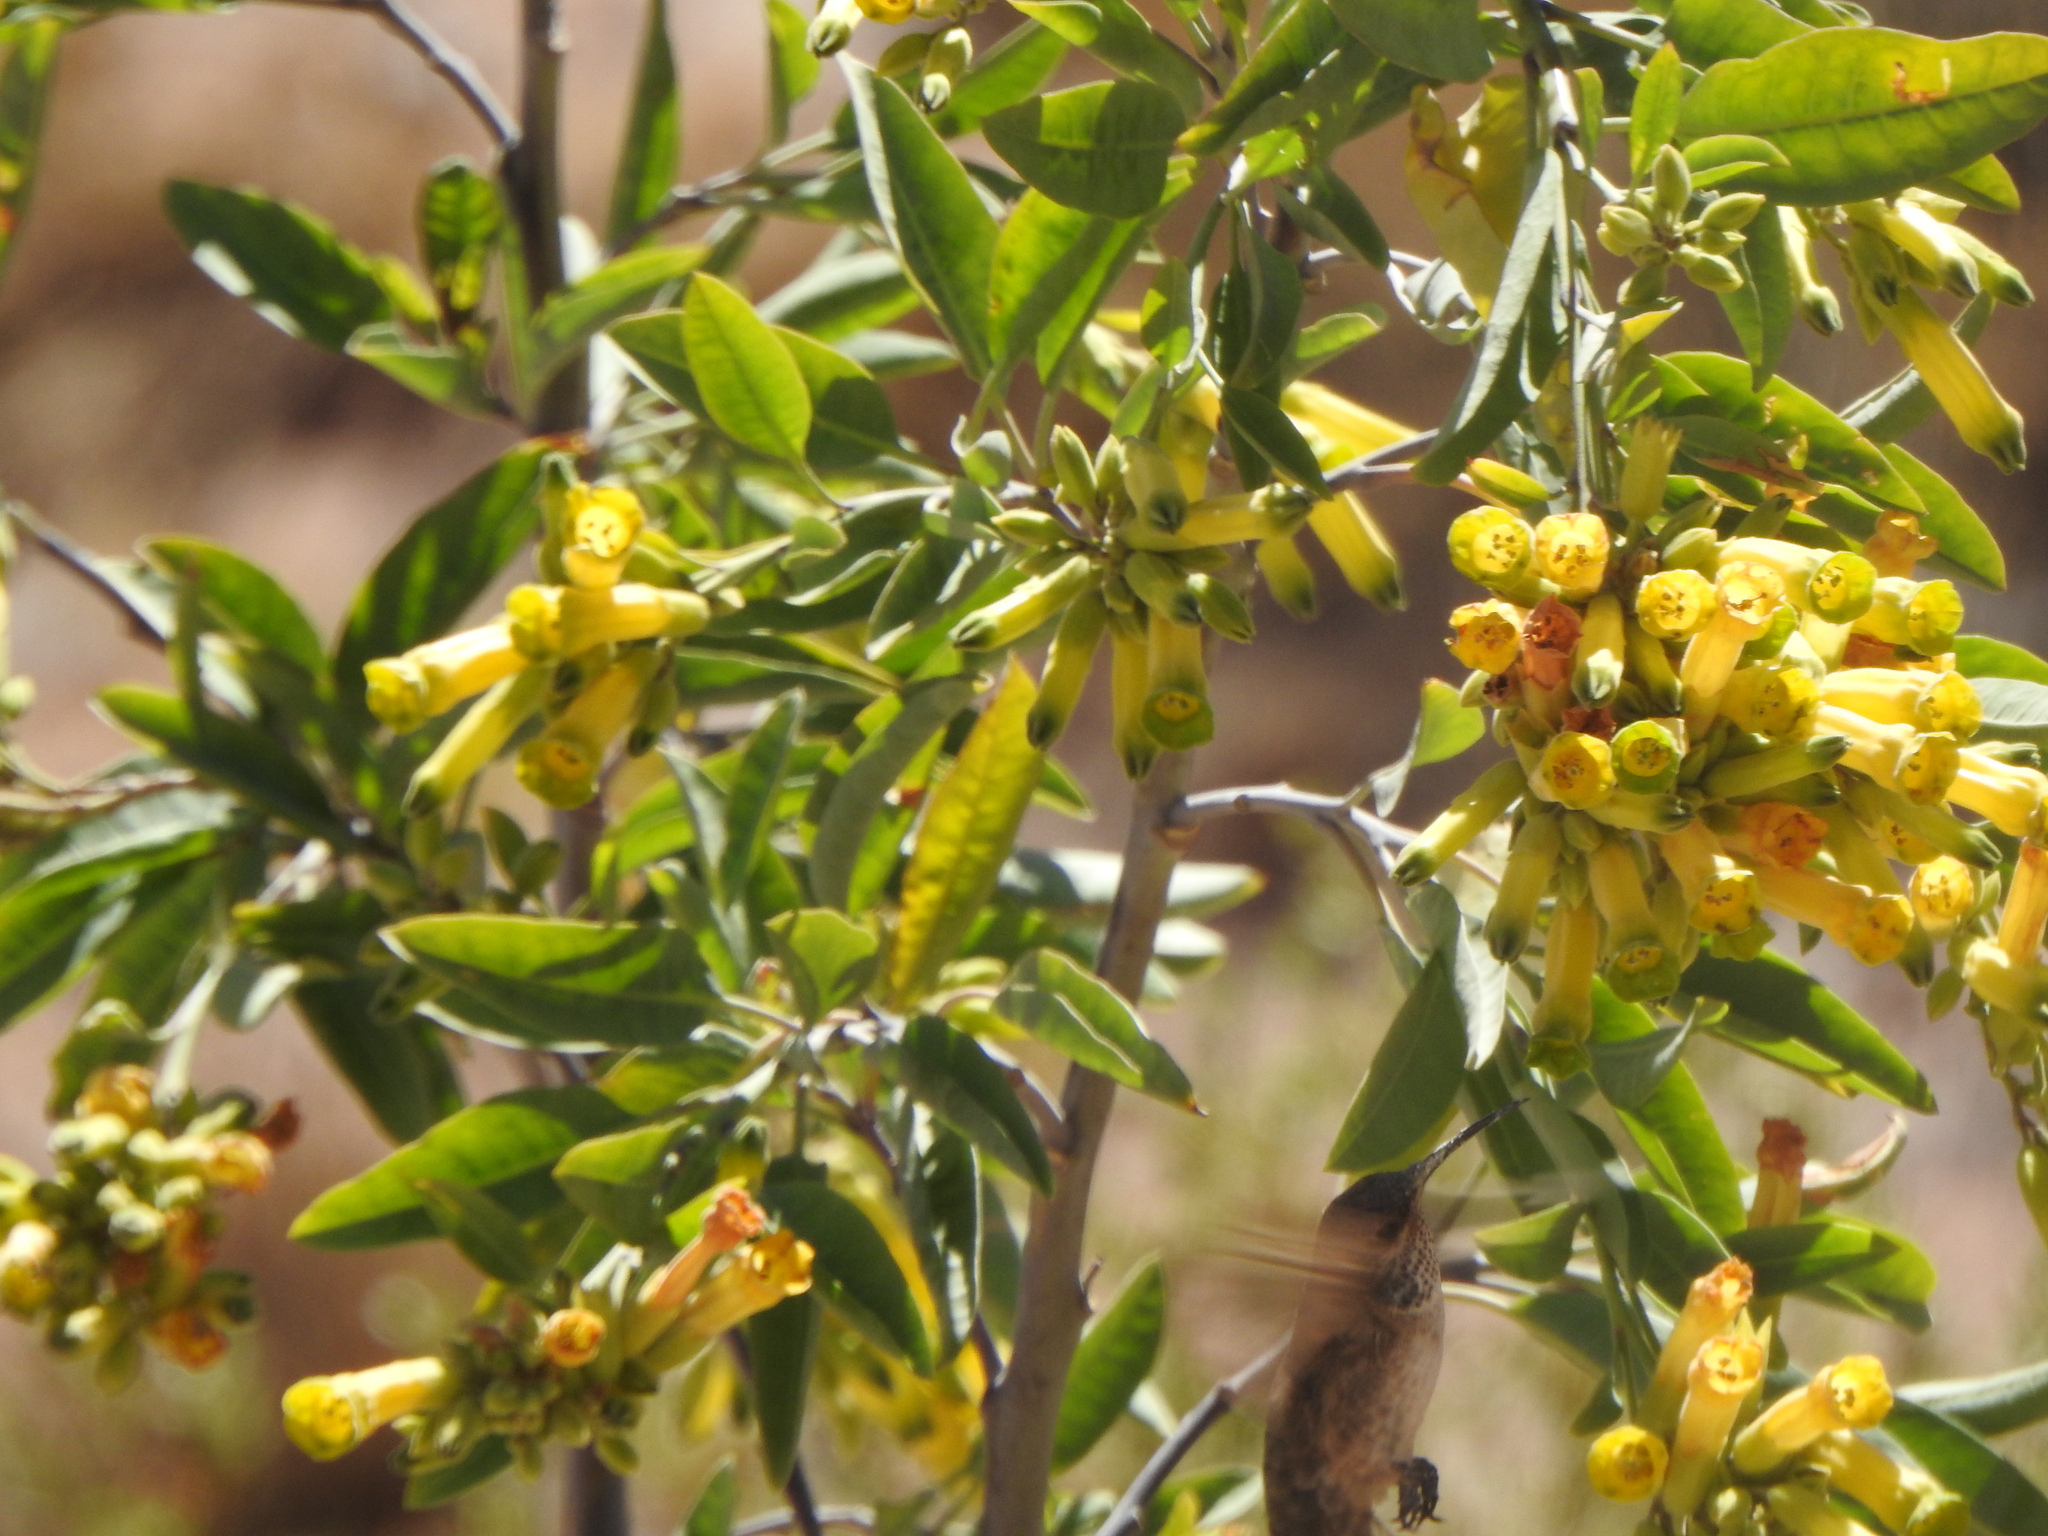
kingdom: Plantae
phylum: Tracheophyta
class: Magnoliopsida
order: Solanales
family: Solanaceae
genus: Nicotiana
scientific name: Nicotiana glauca
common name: Tree tobacco
